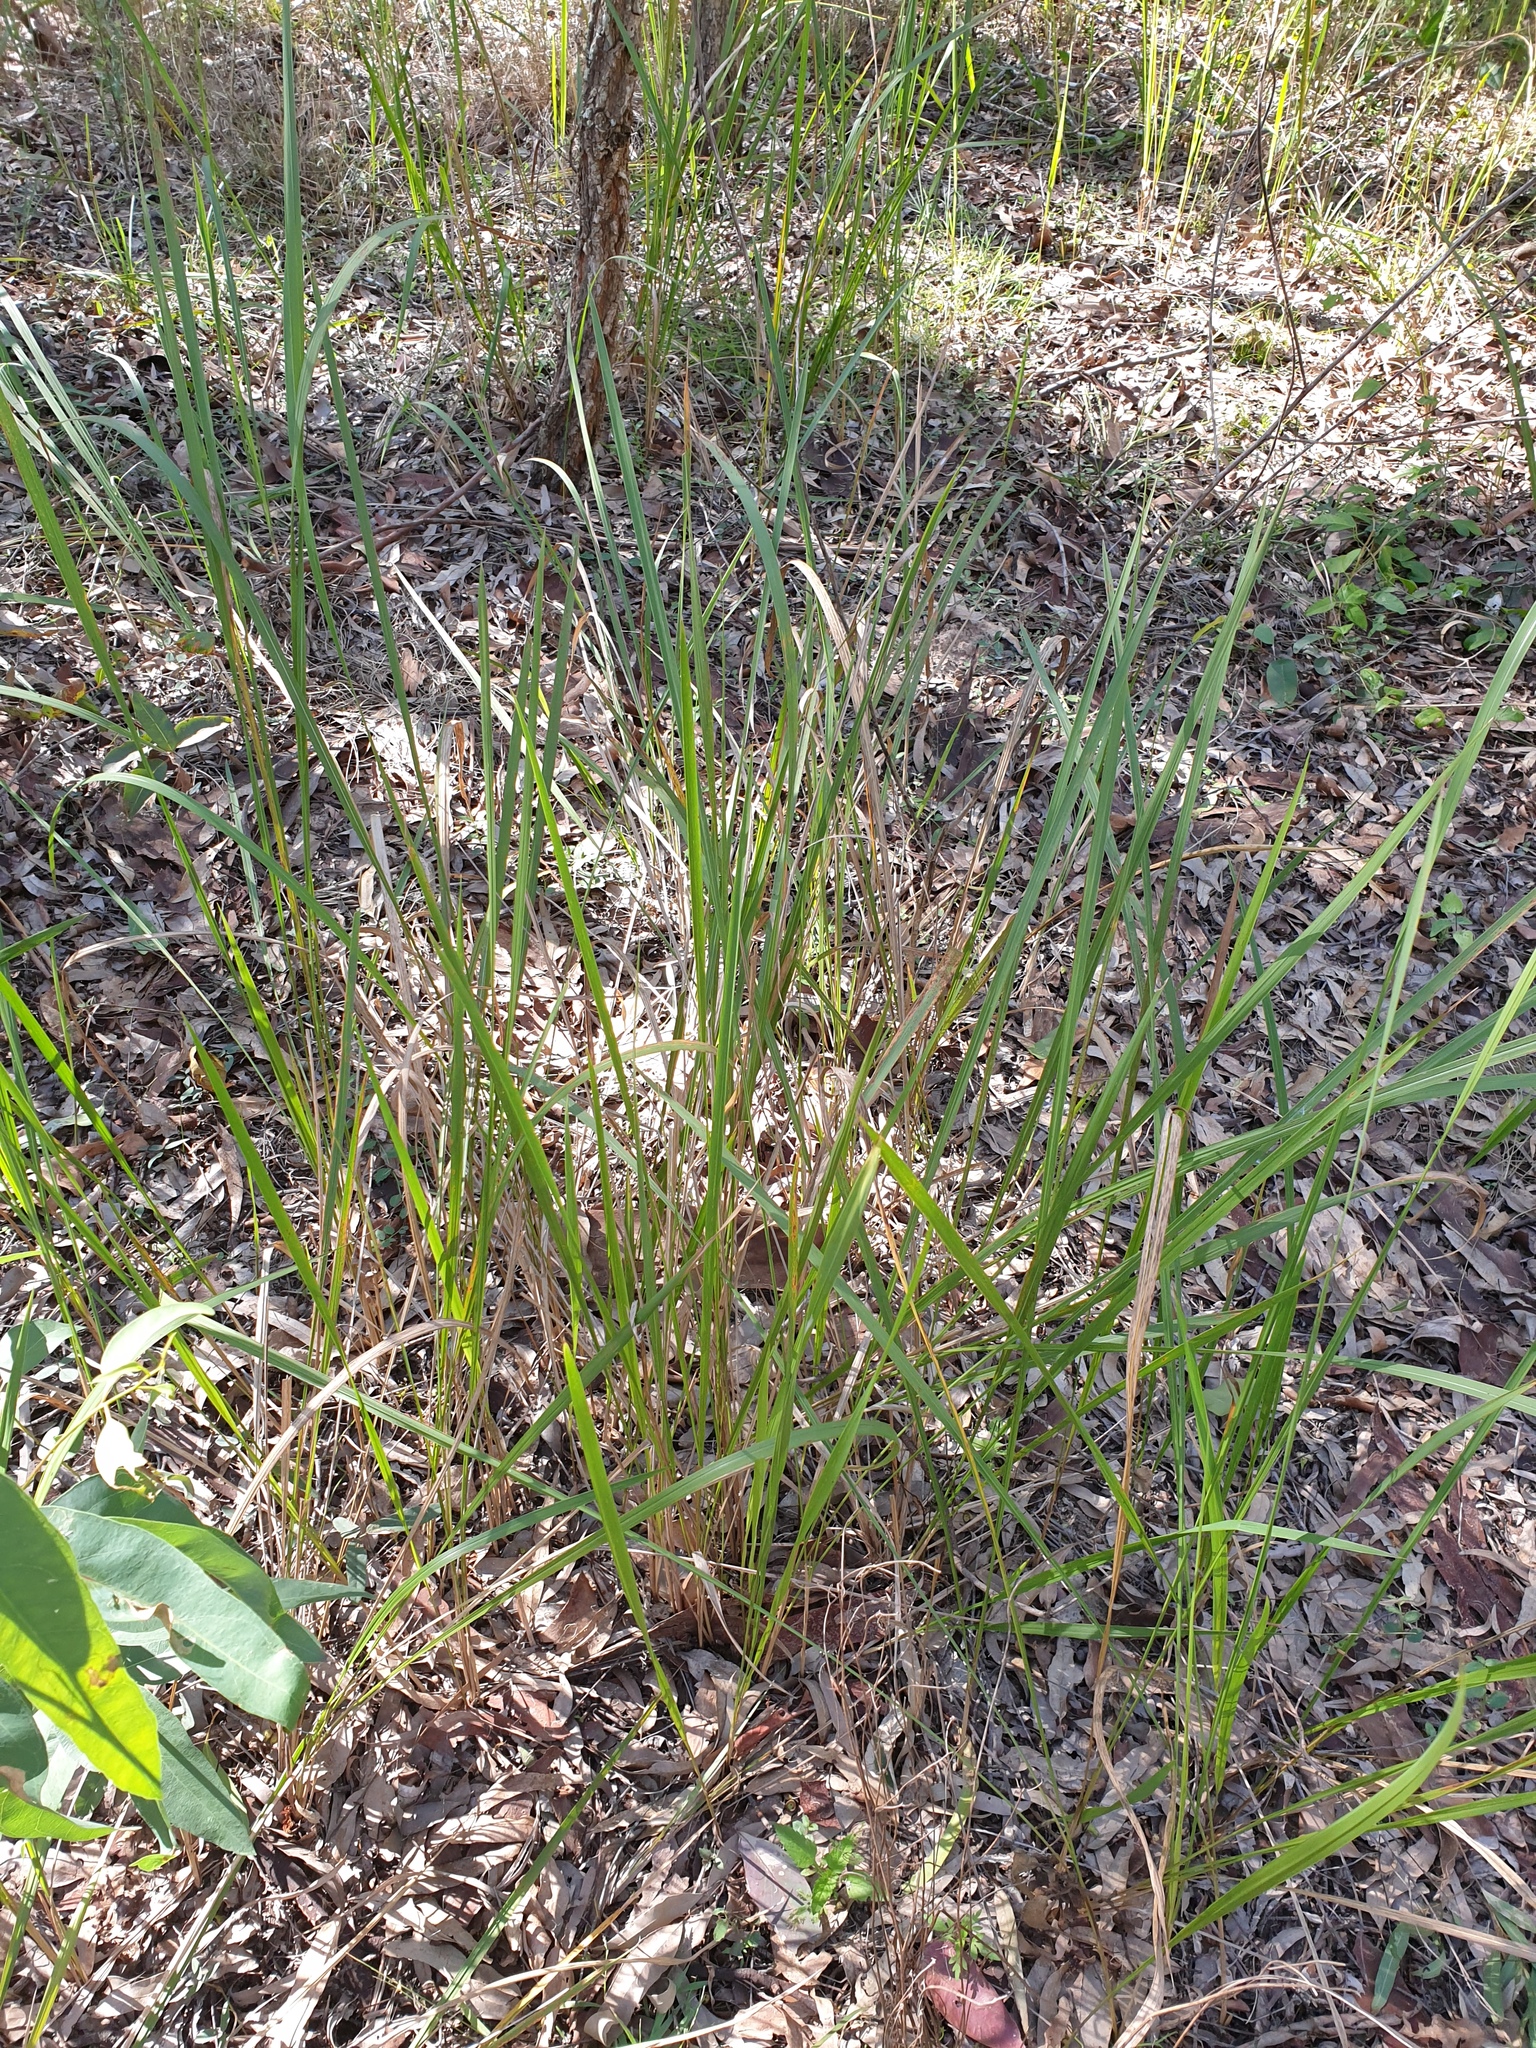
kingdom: Plantae
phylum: Tracheophyta
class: Liliopsida
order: Poales
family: Poaceae
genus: Imperata
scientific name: Imperata cylindrica
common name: Cogongrass
